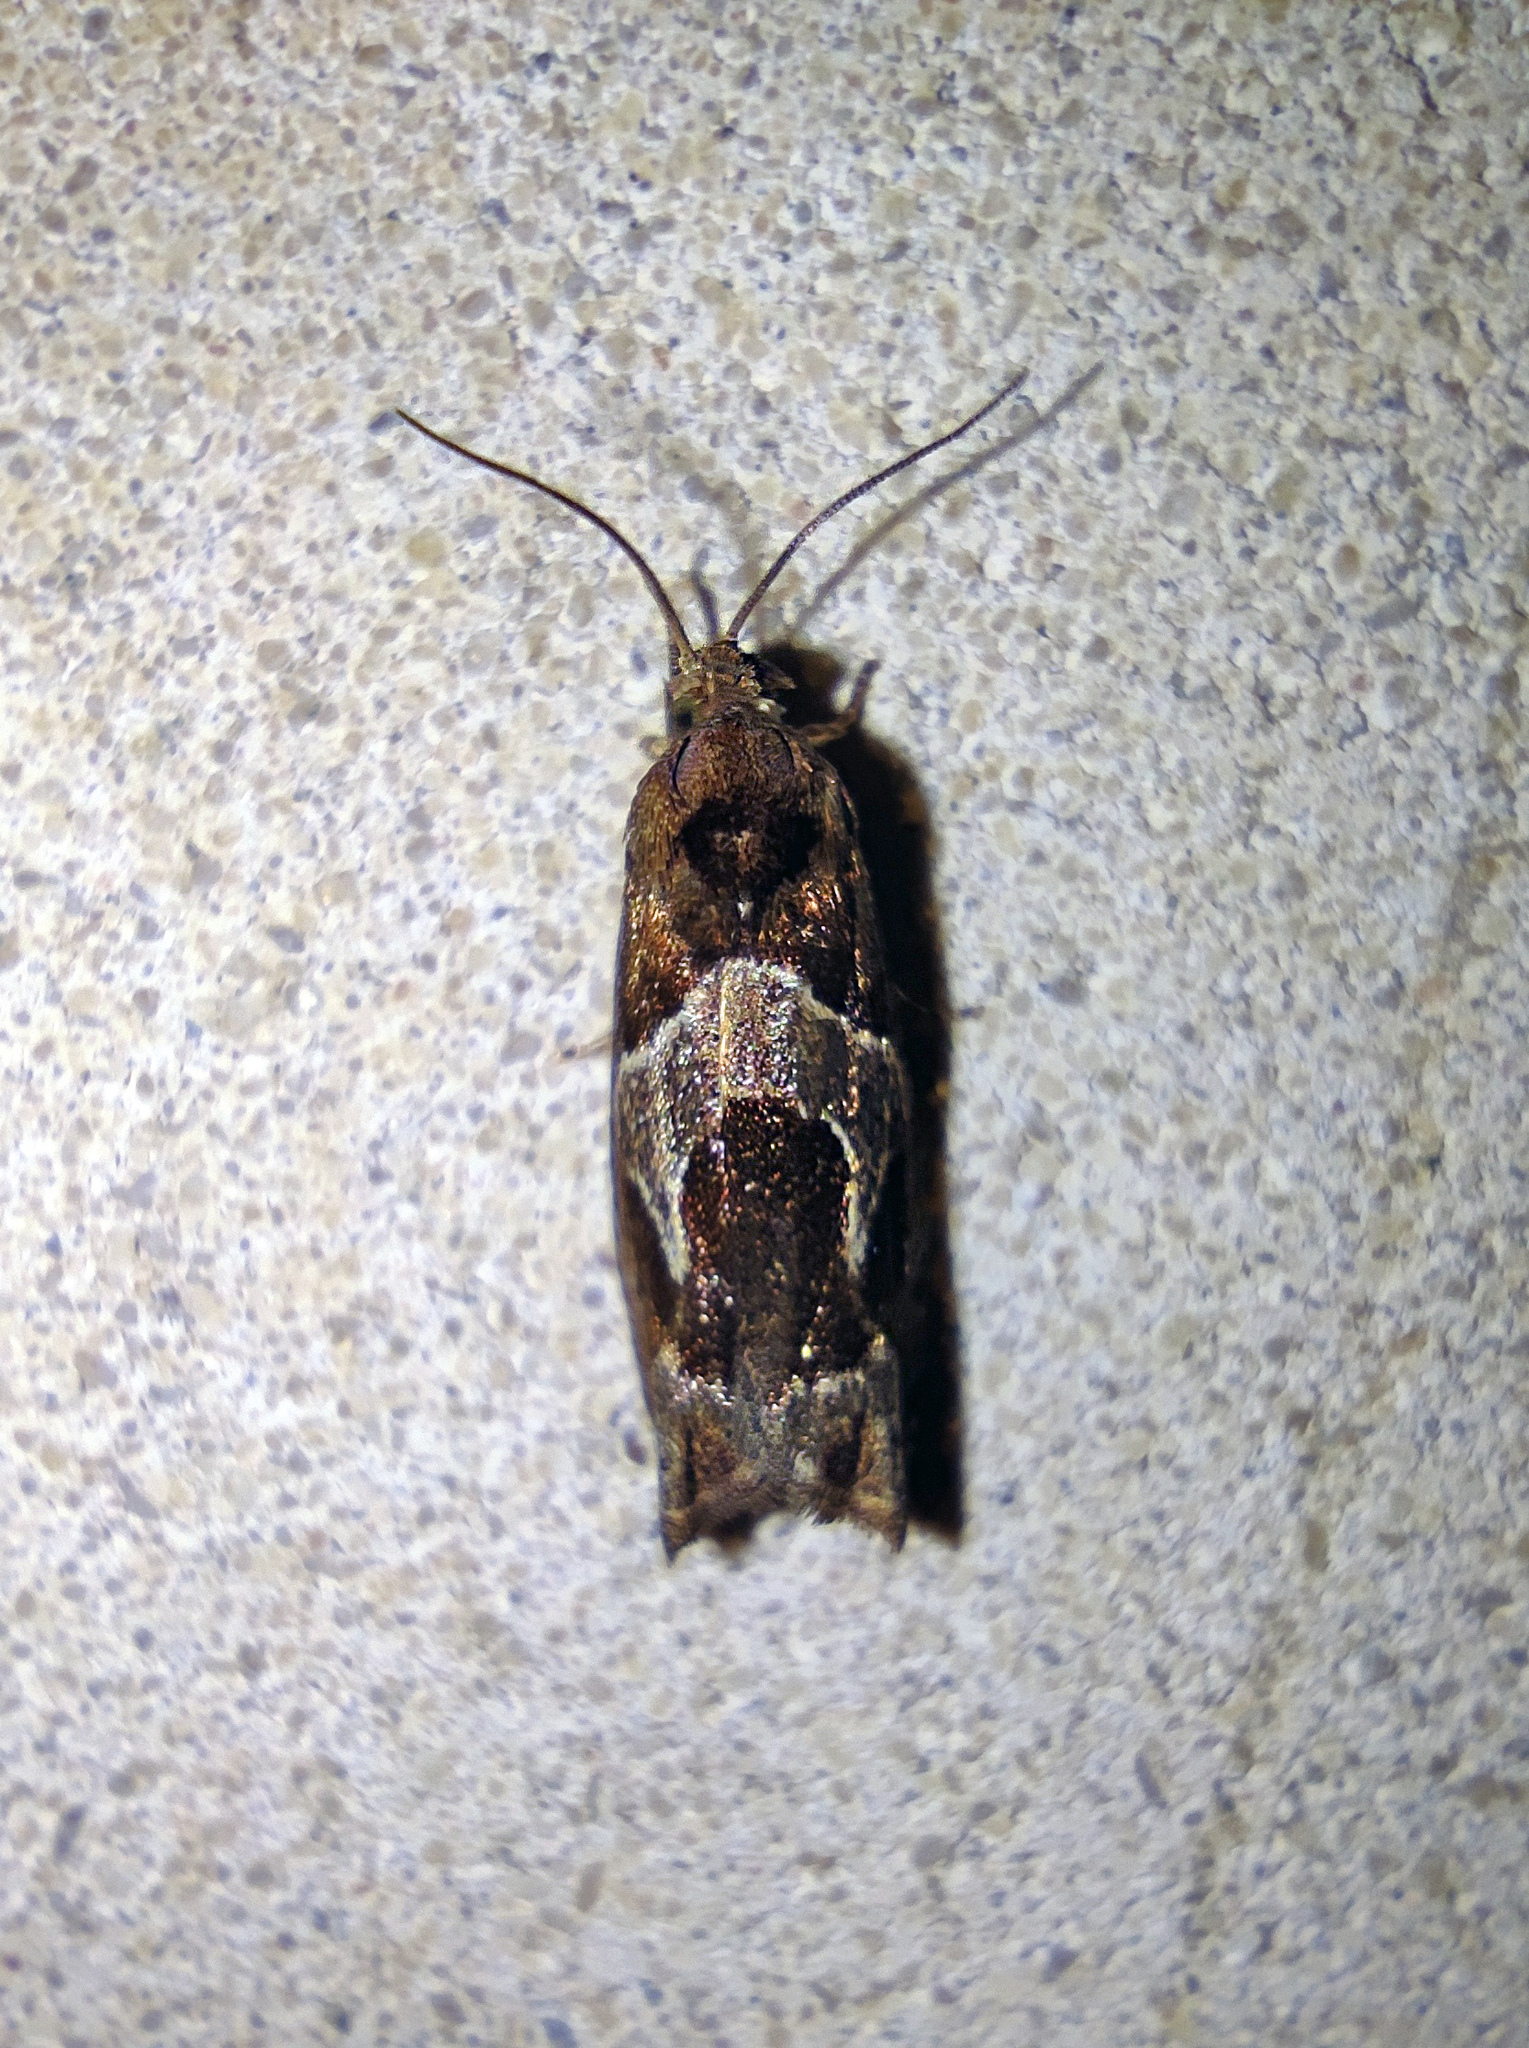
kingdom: Animalia
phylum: Arthropoda
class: Insecta
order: Lepidoptera
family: Tortricidae
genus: Epiblema
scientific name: Epiblema foenella
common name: White-foot bell
